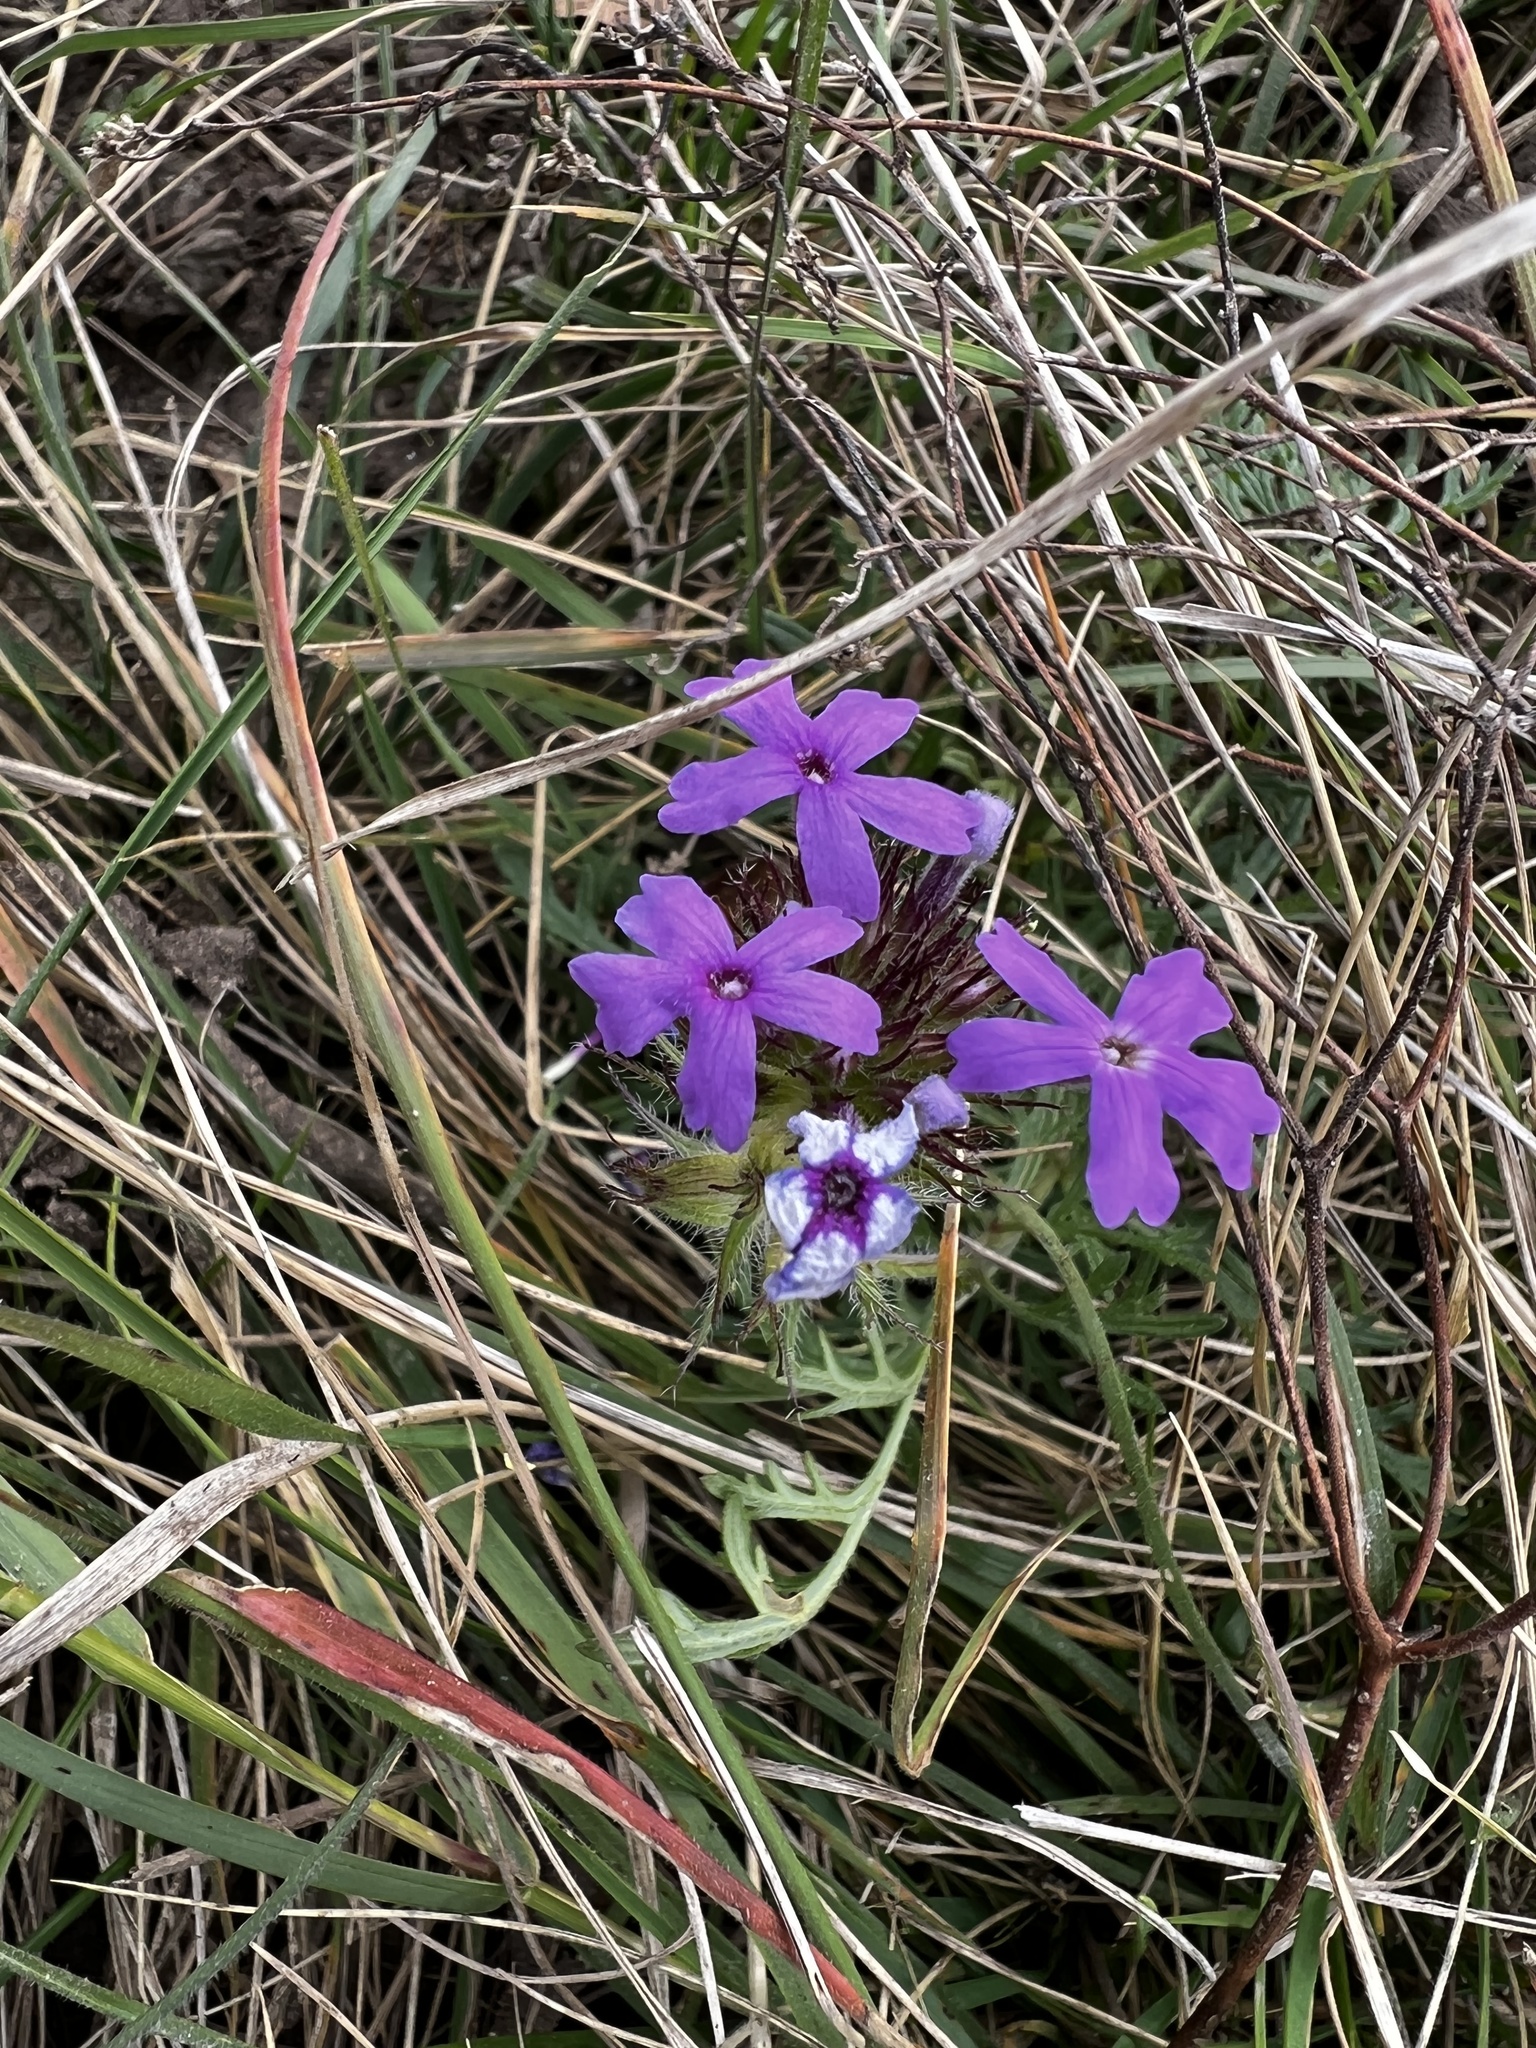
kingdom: Plantae
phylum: Tracheophyta
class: Magnoliopsida
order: Lamiales
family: Verbenaceae
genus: Verbena
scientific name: Verbena bipinnatifida
